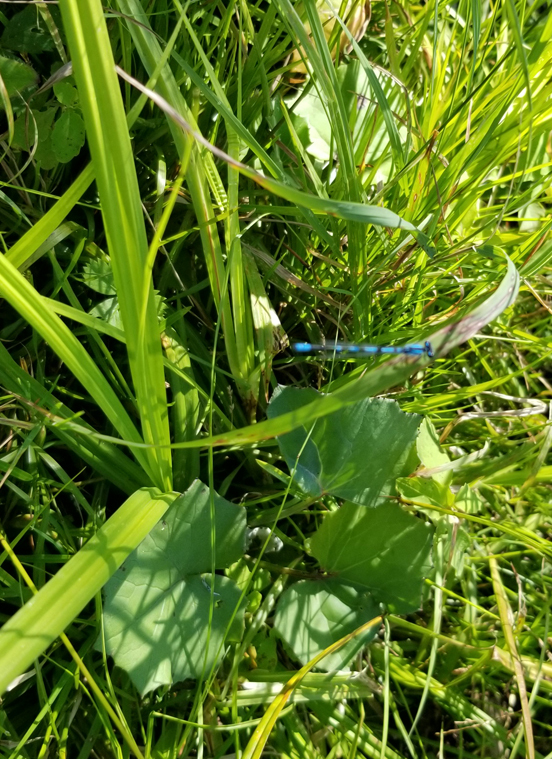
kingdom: Plantae
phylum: Tracheophyta
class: Magnoliopsida
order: Asterales
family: Asteraceae
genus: Tussilago
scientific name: Tussilago farfara
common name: Coltsfoot
